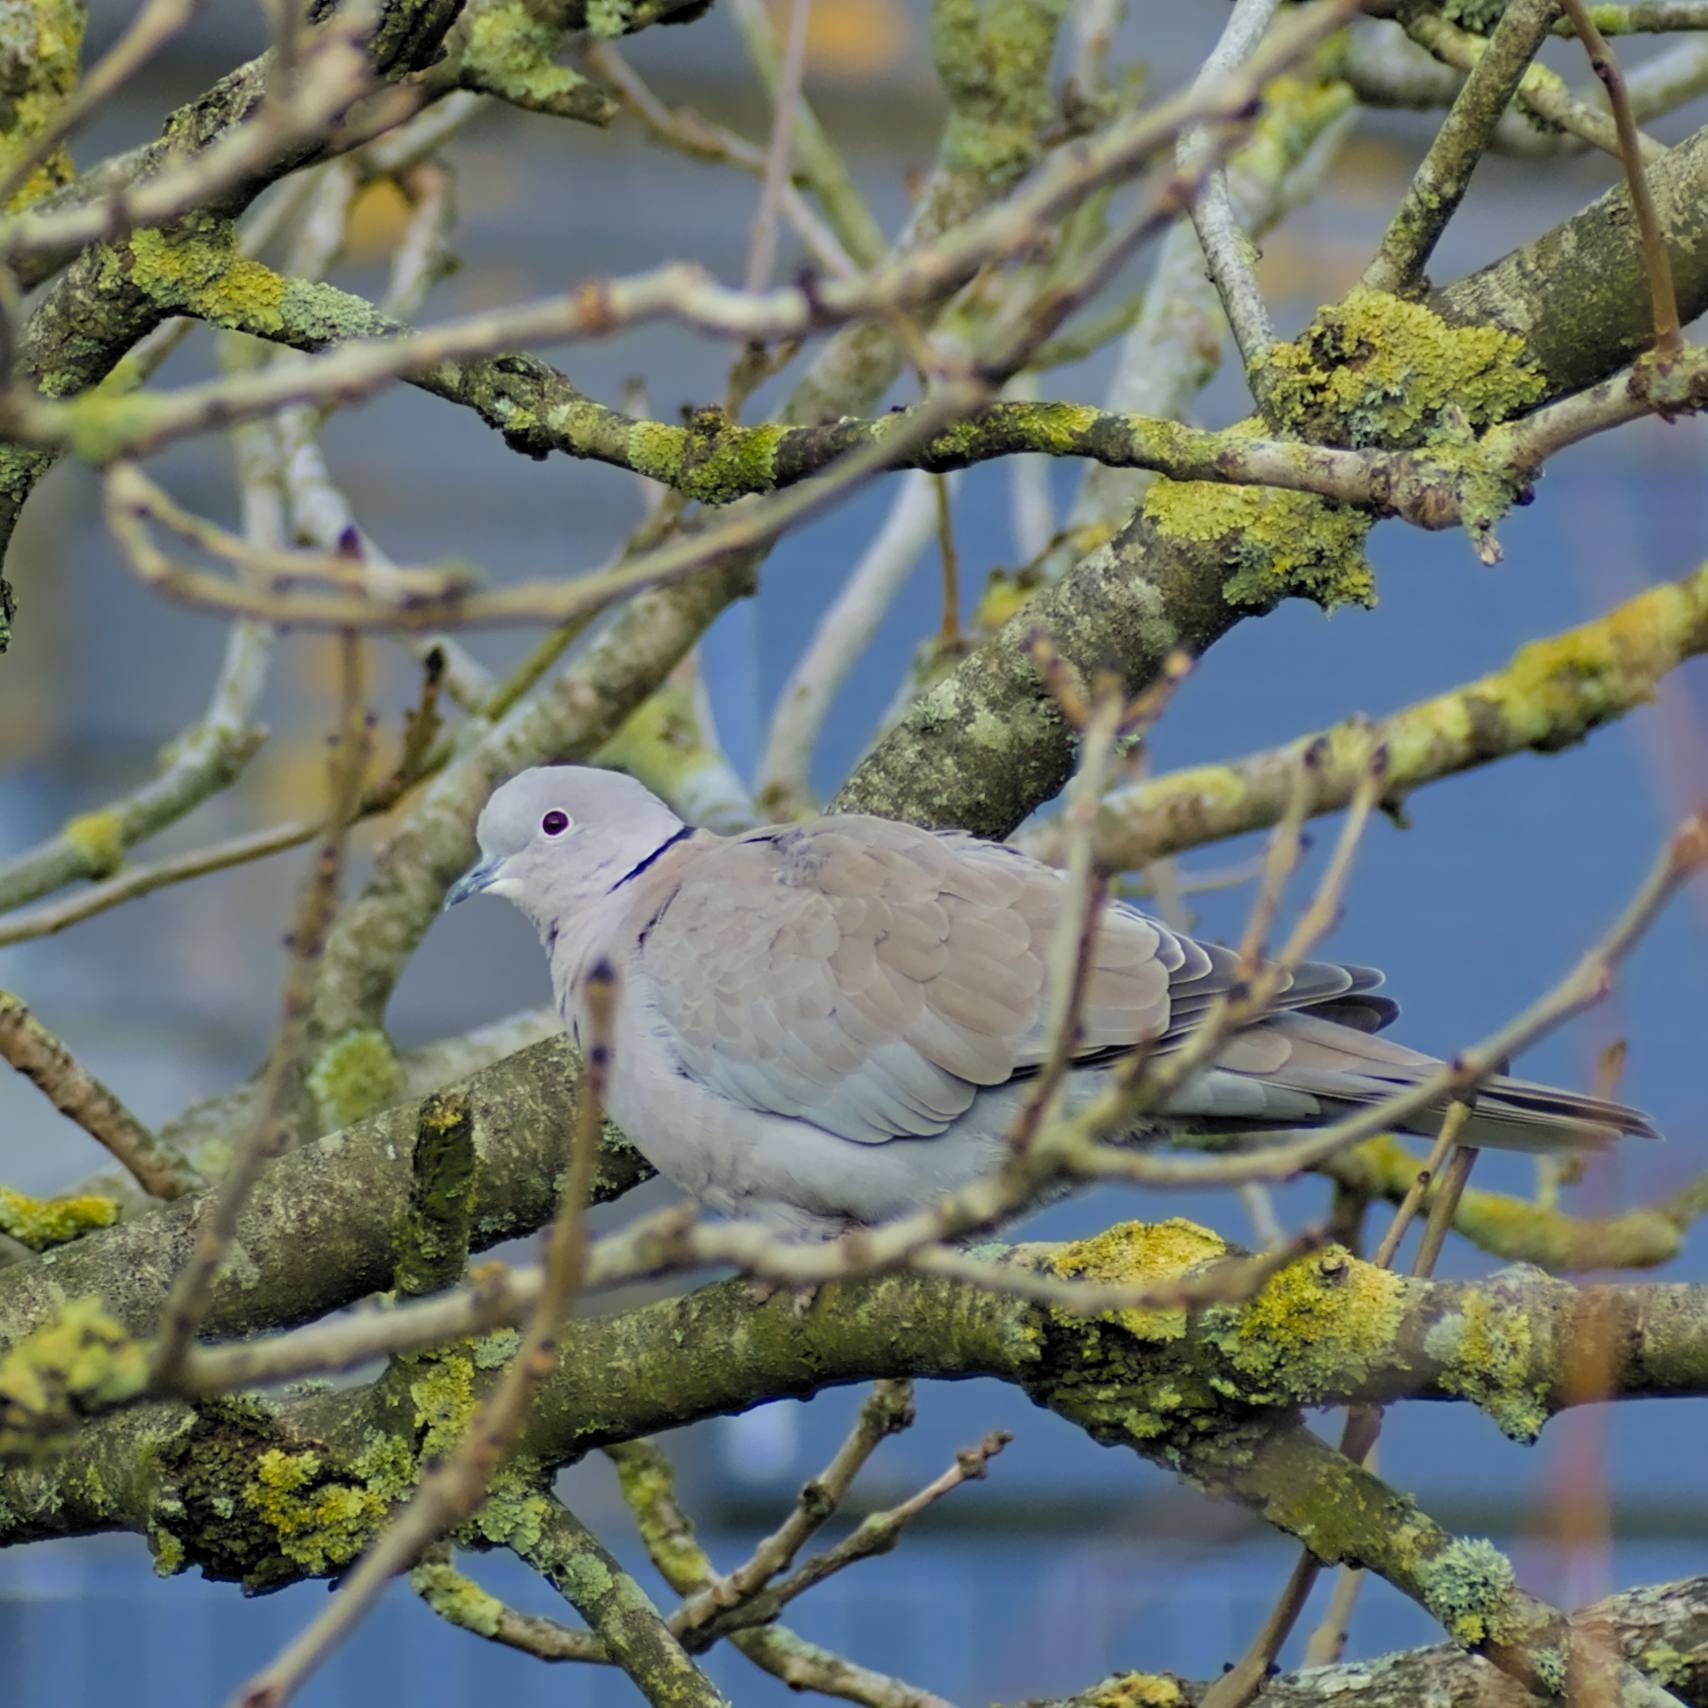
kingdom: Animalia
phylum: Chordata
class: Aves
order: Columbiformes
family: Columbidae
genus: Streptopelia
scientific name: Streptopelia decaocto
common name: Eurasian collared dove
